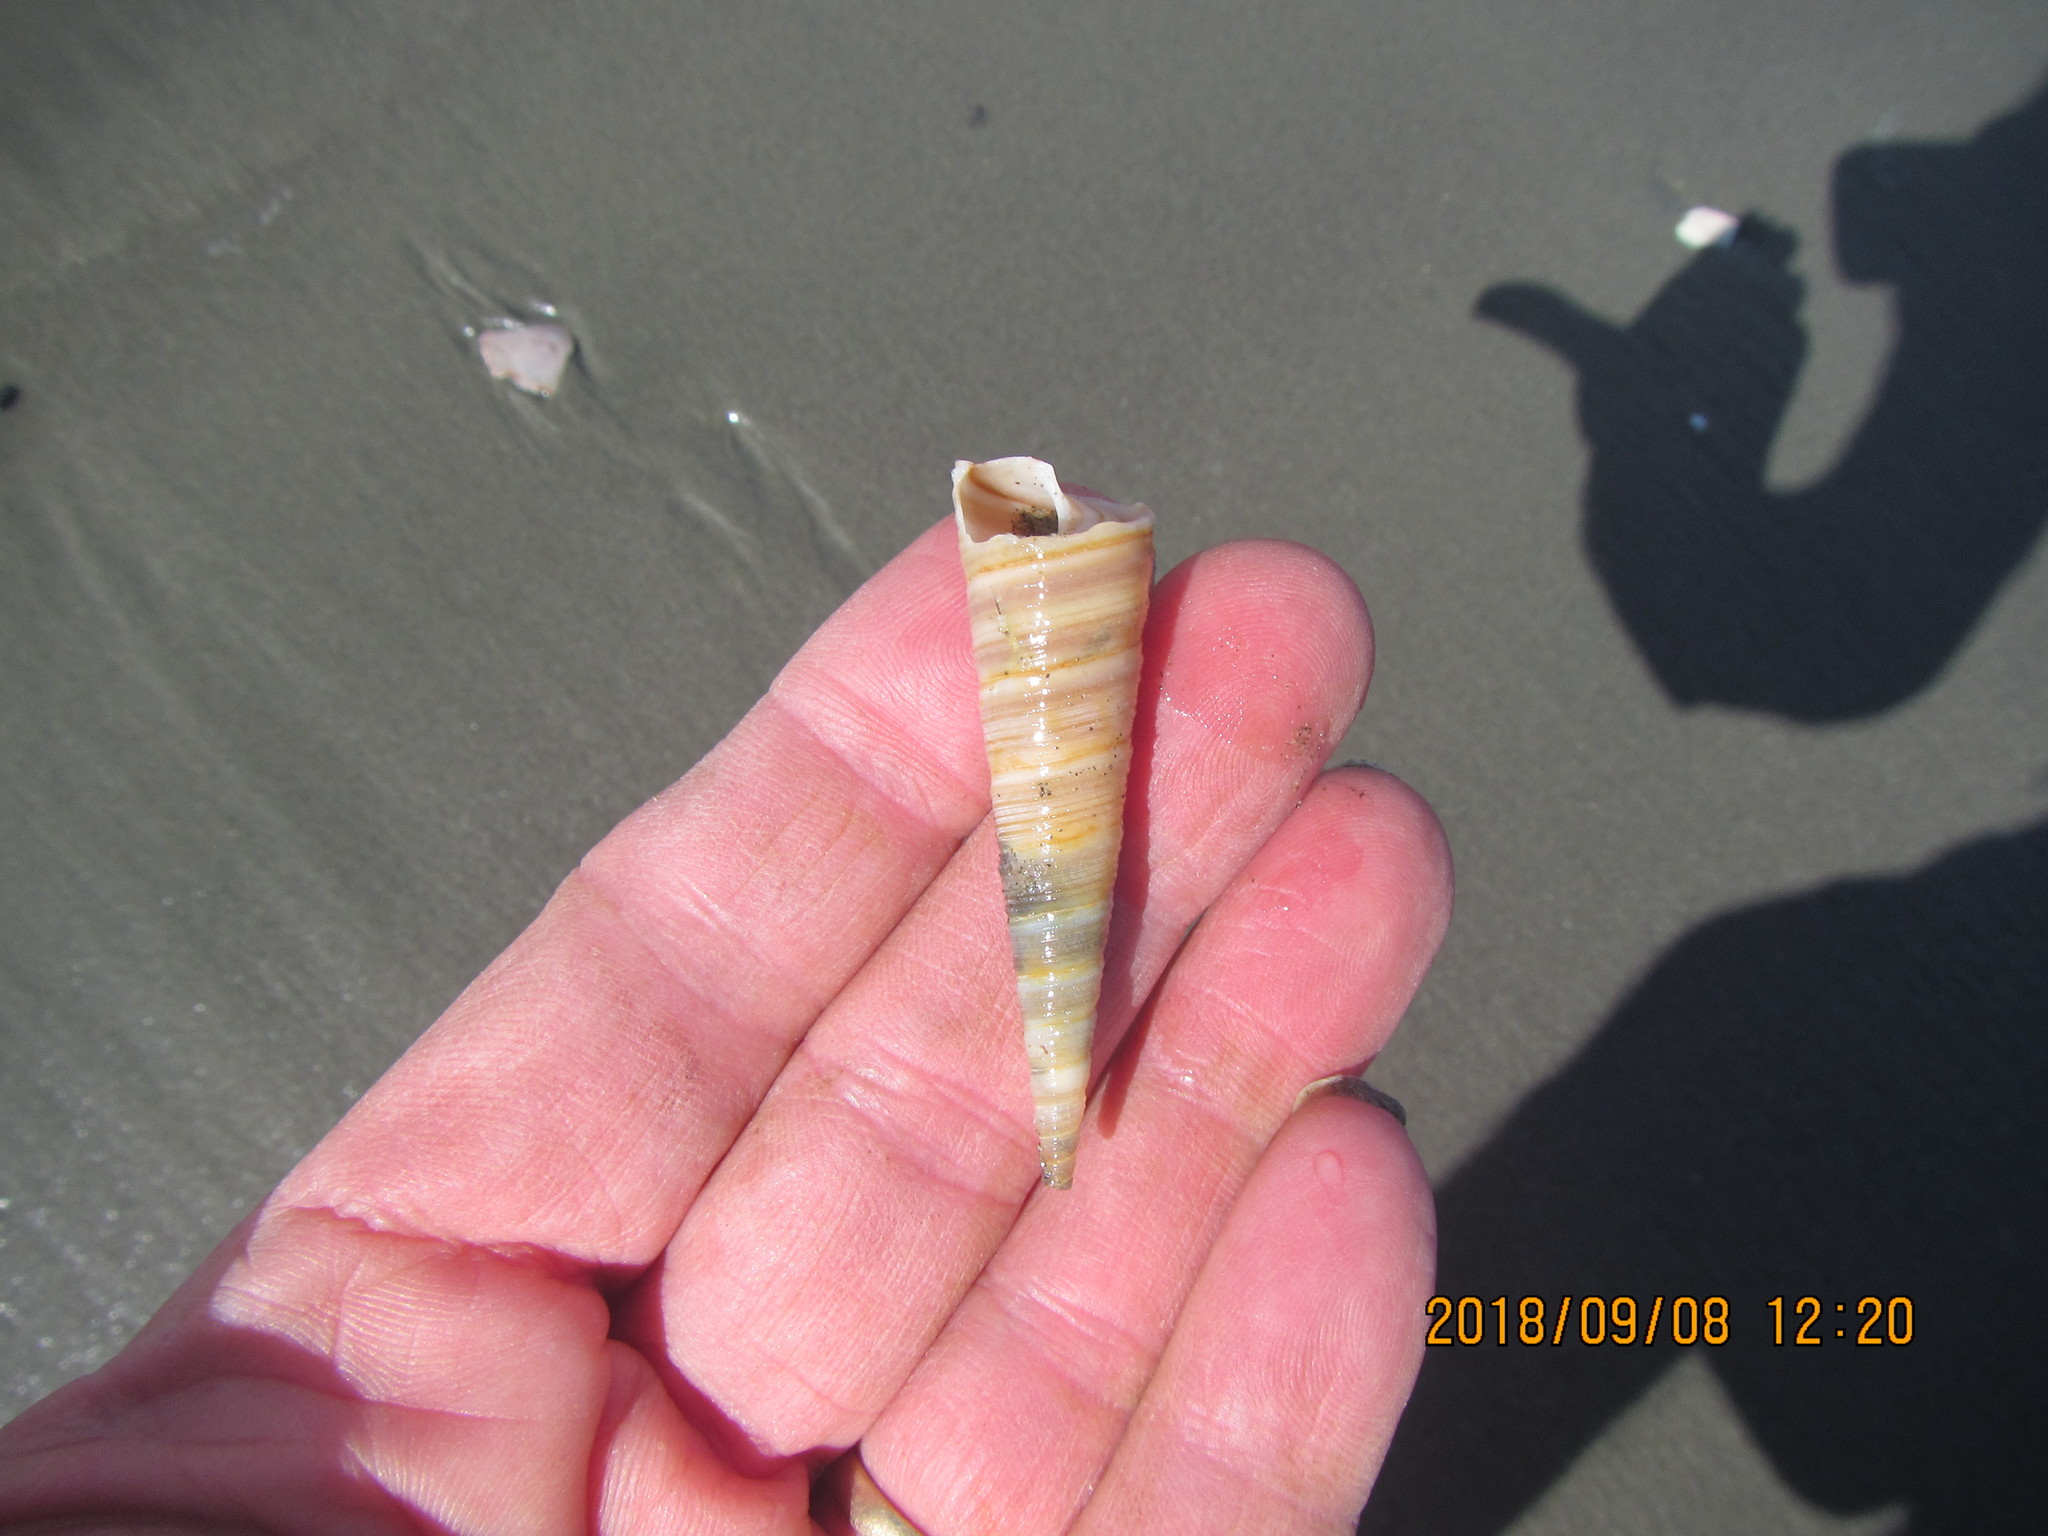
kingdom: Animalia
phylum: Mollusca
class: Gastropoda
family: Turritellidae
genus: Zeacolpus
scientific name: Zeacolpus vittatus
